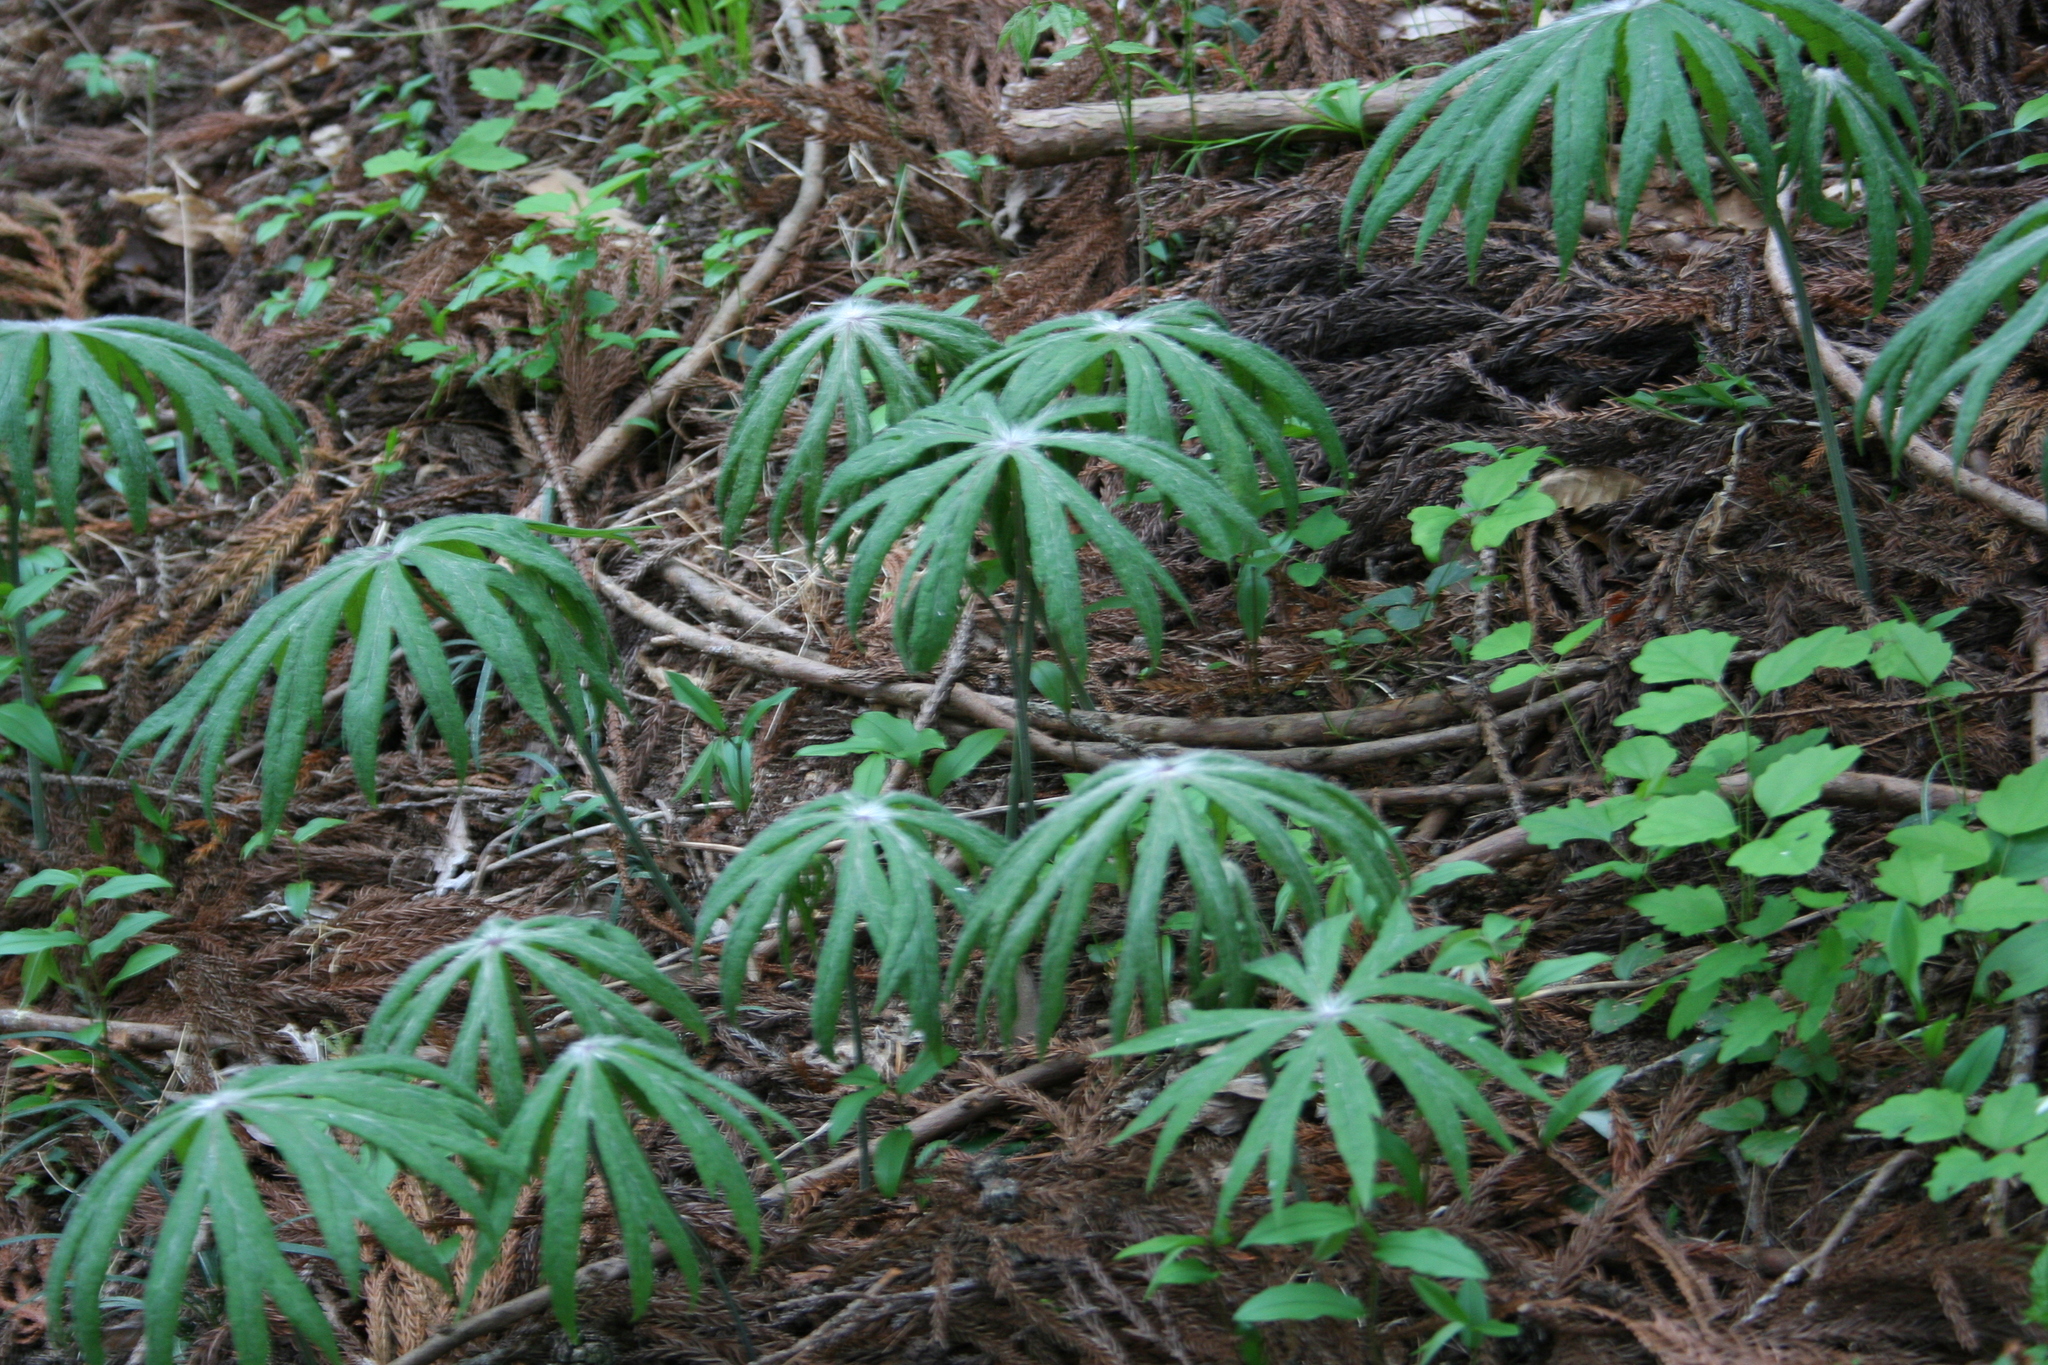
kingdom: Plantae
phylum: Tracheophyta
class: Magnoliopsida
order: Asterales
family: Asteraceae
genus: Syneilesis
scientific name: Syneilesis palmata
